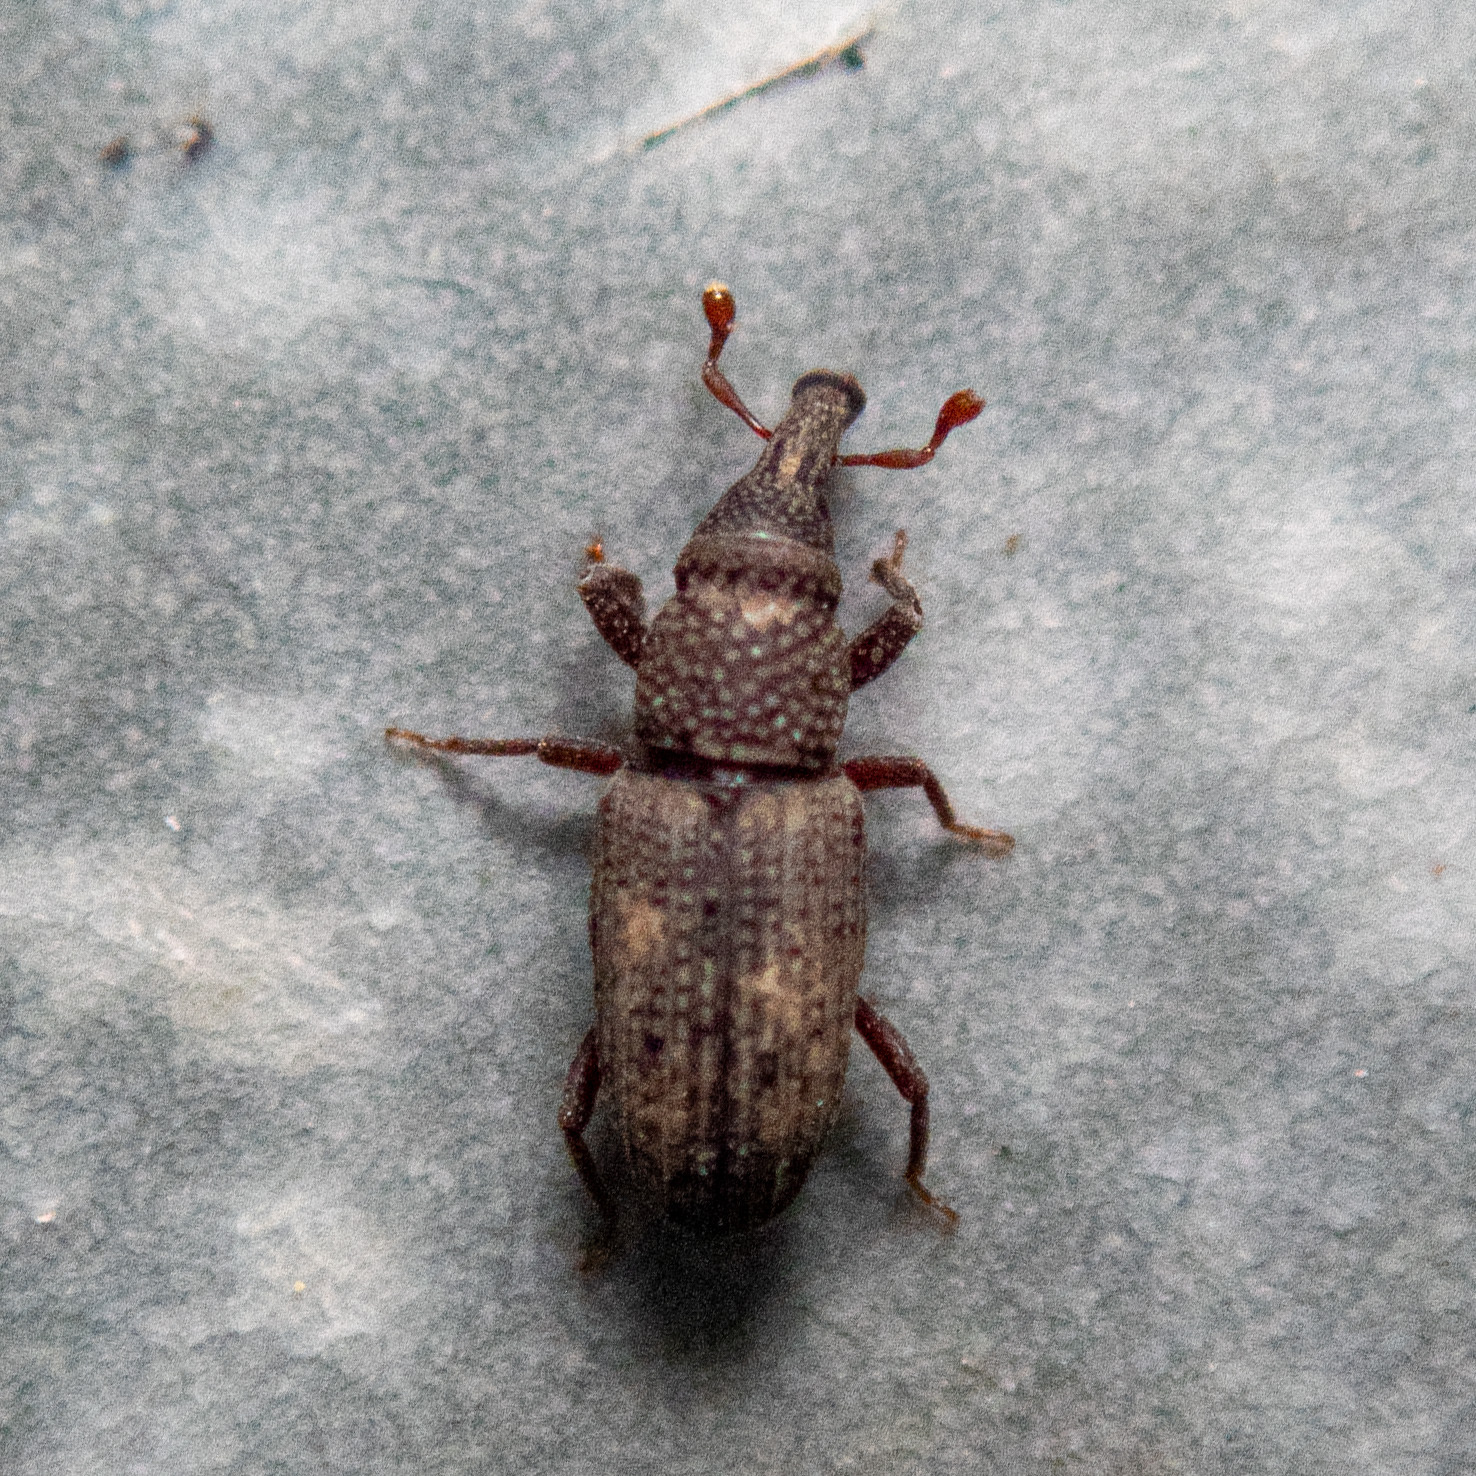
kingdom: Animalia
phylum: Arthropoda
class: Insecta
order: Coleoptera
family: Dryophthoridae
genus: Dryophthorus
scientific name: Dryophthorus americanus
